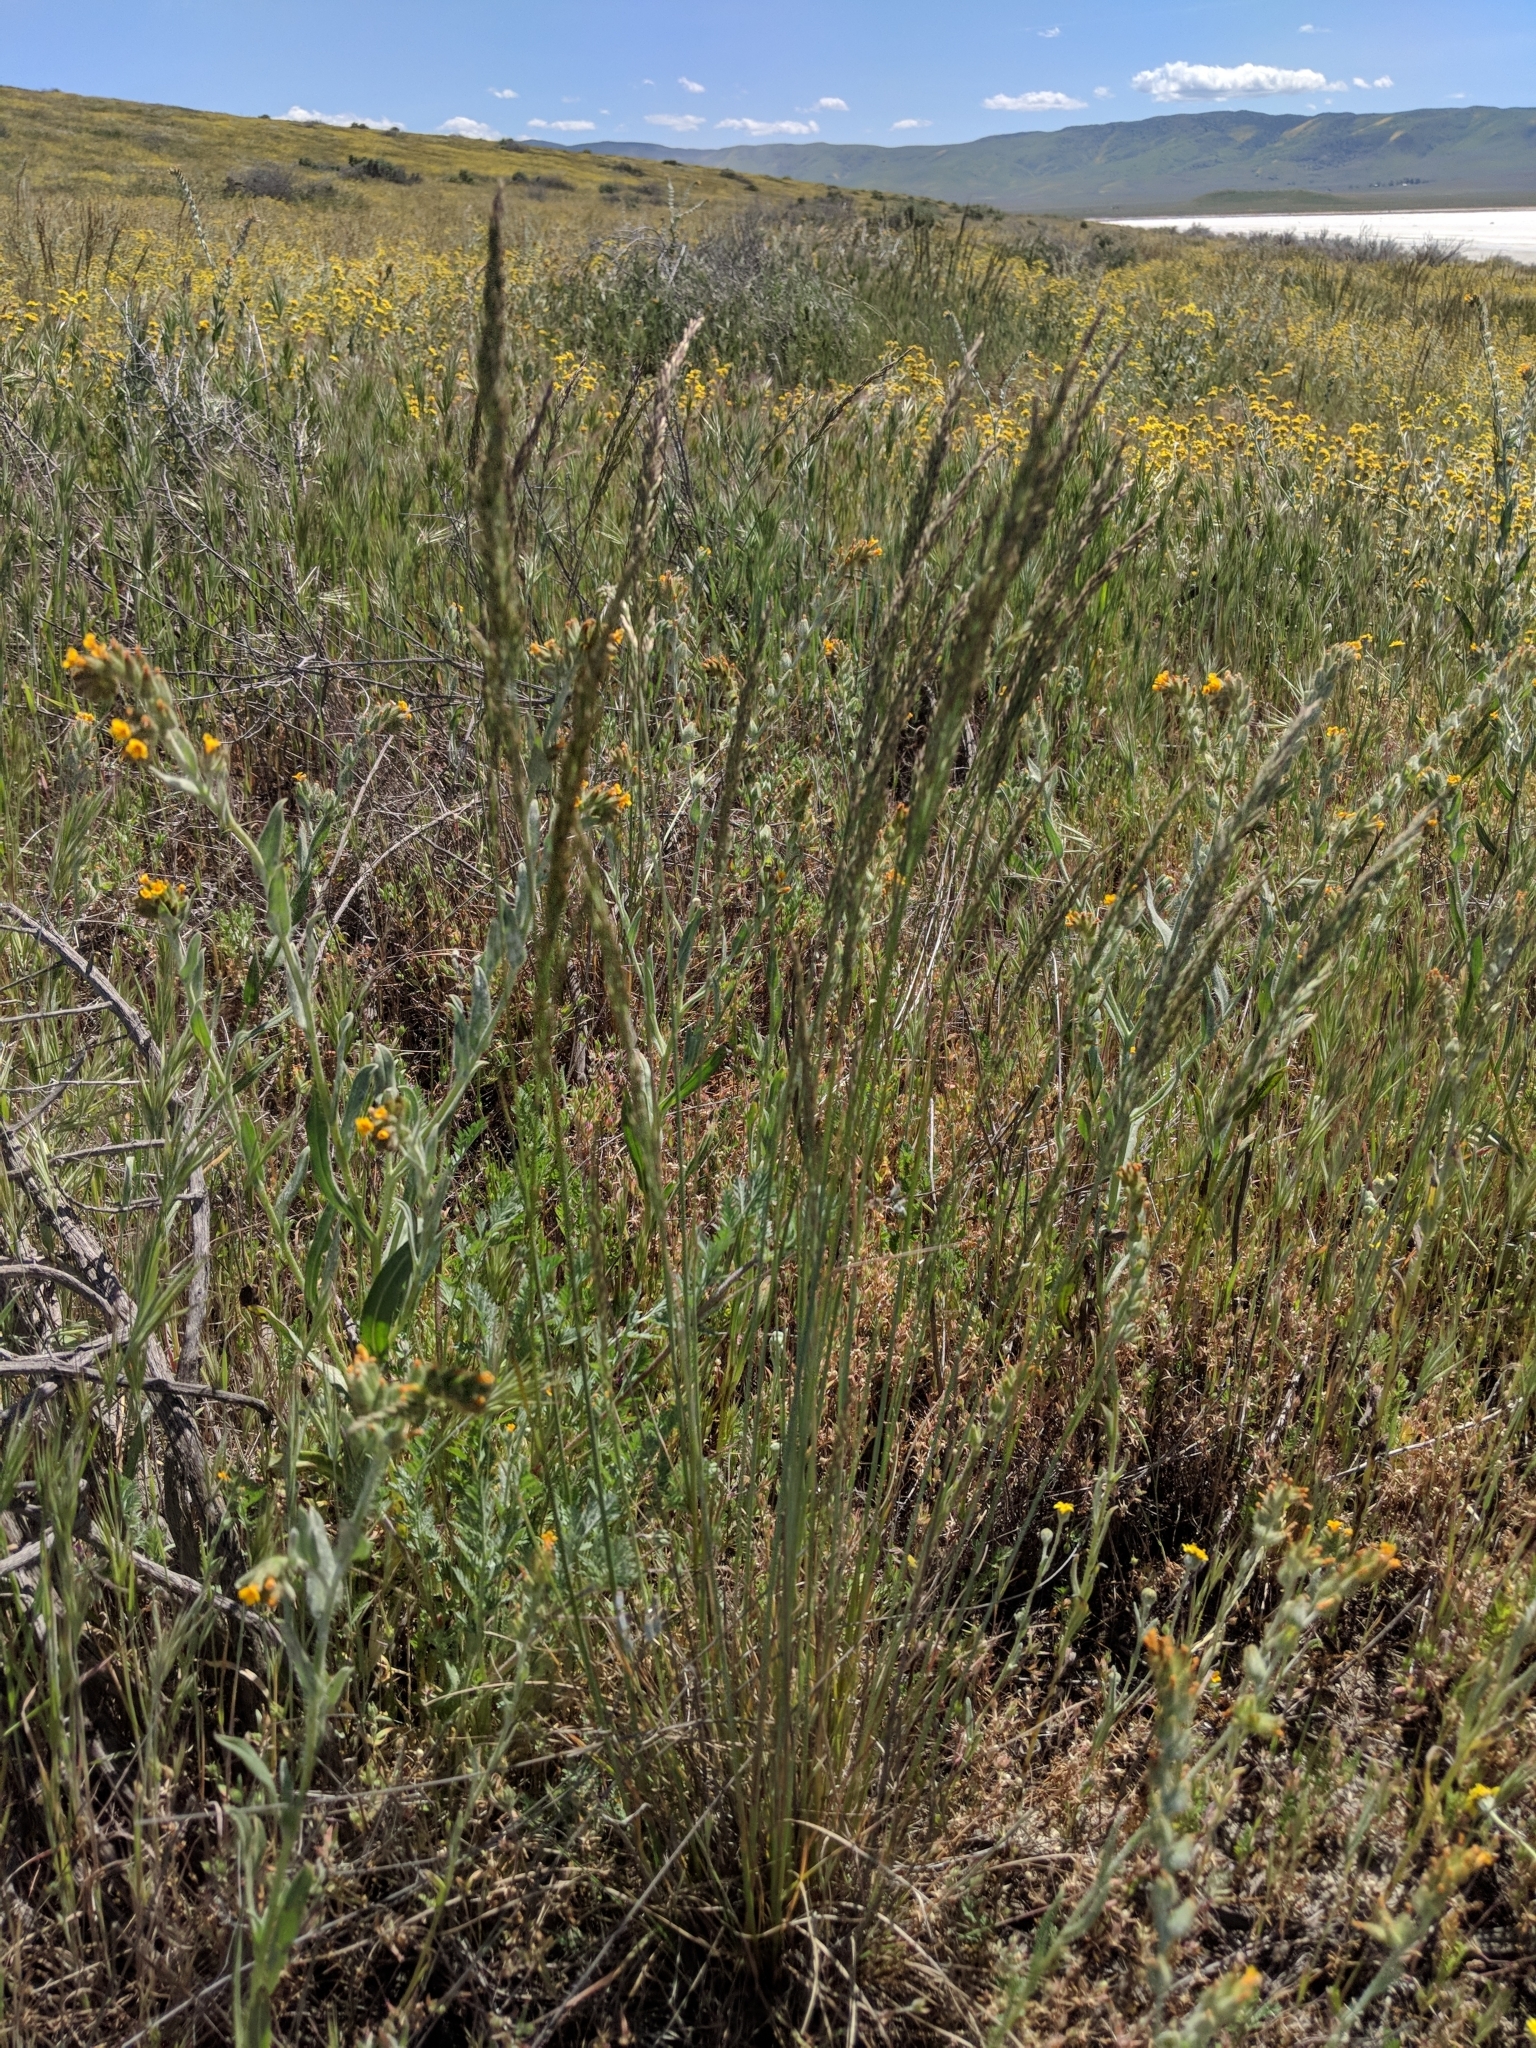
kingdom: Plantae
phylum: Tracheophyta
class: Liliopsida
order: Poales
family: Poaceae
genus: Poa
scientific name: Poa secunda
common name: Sandberg bluegrass
